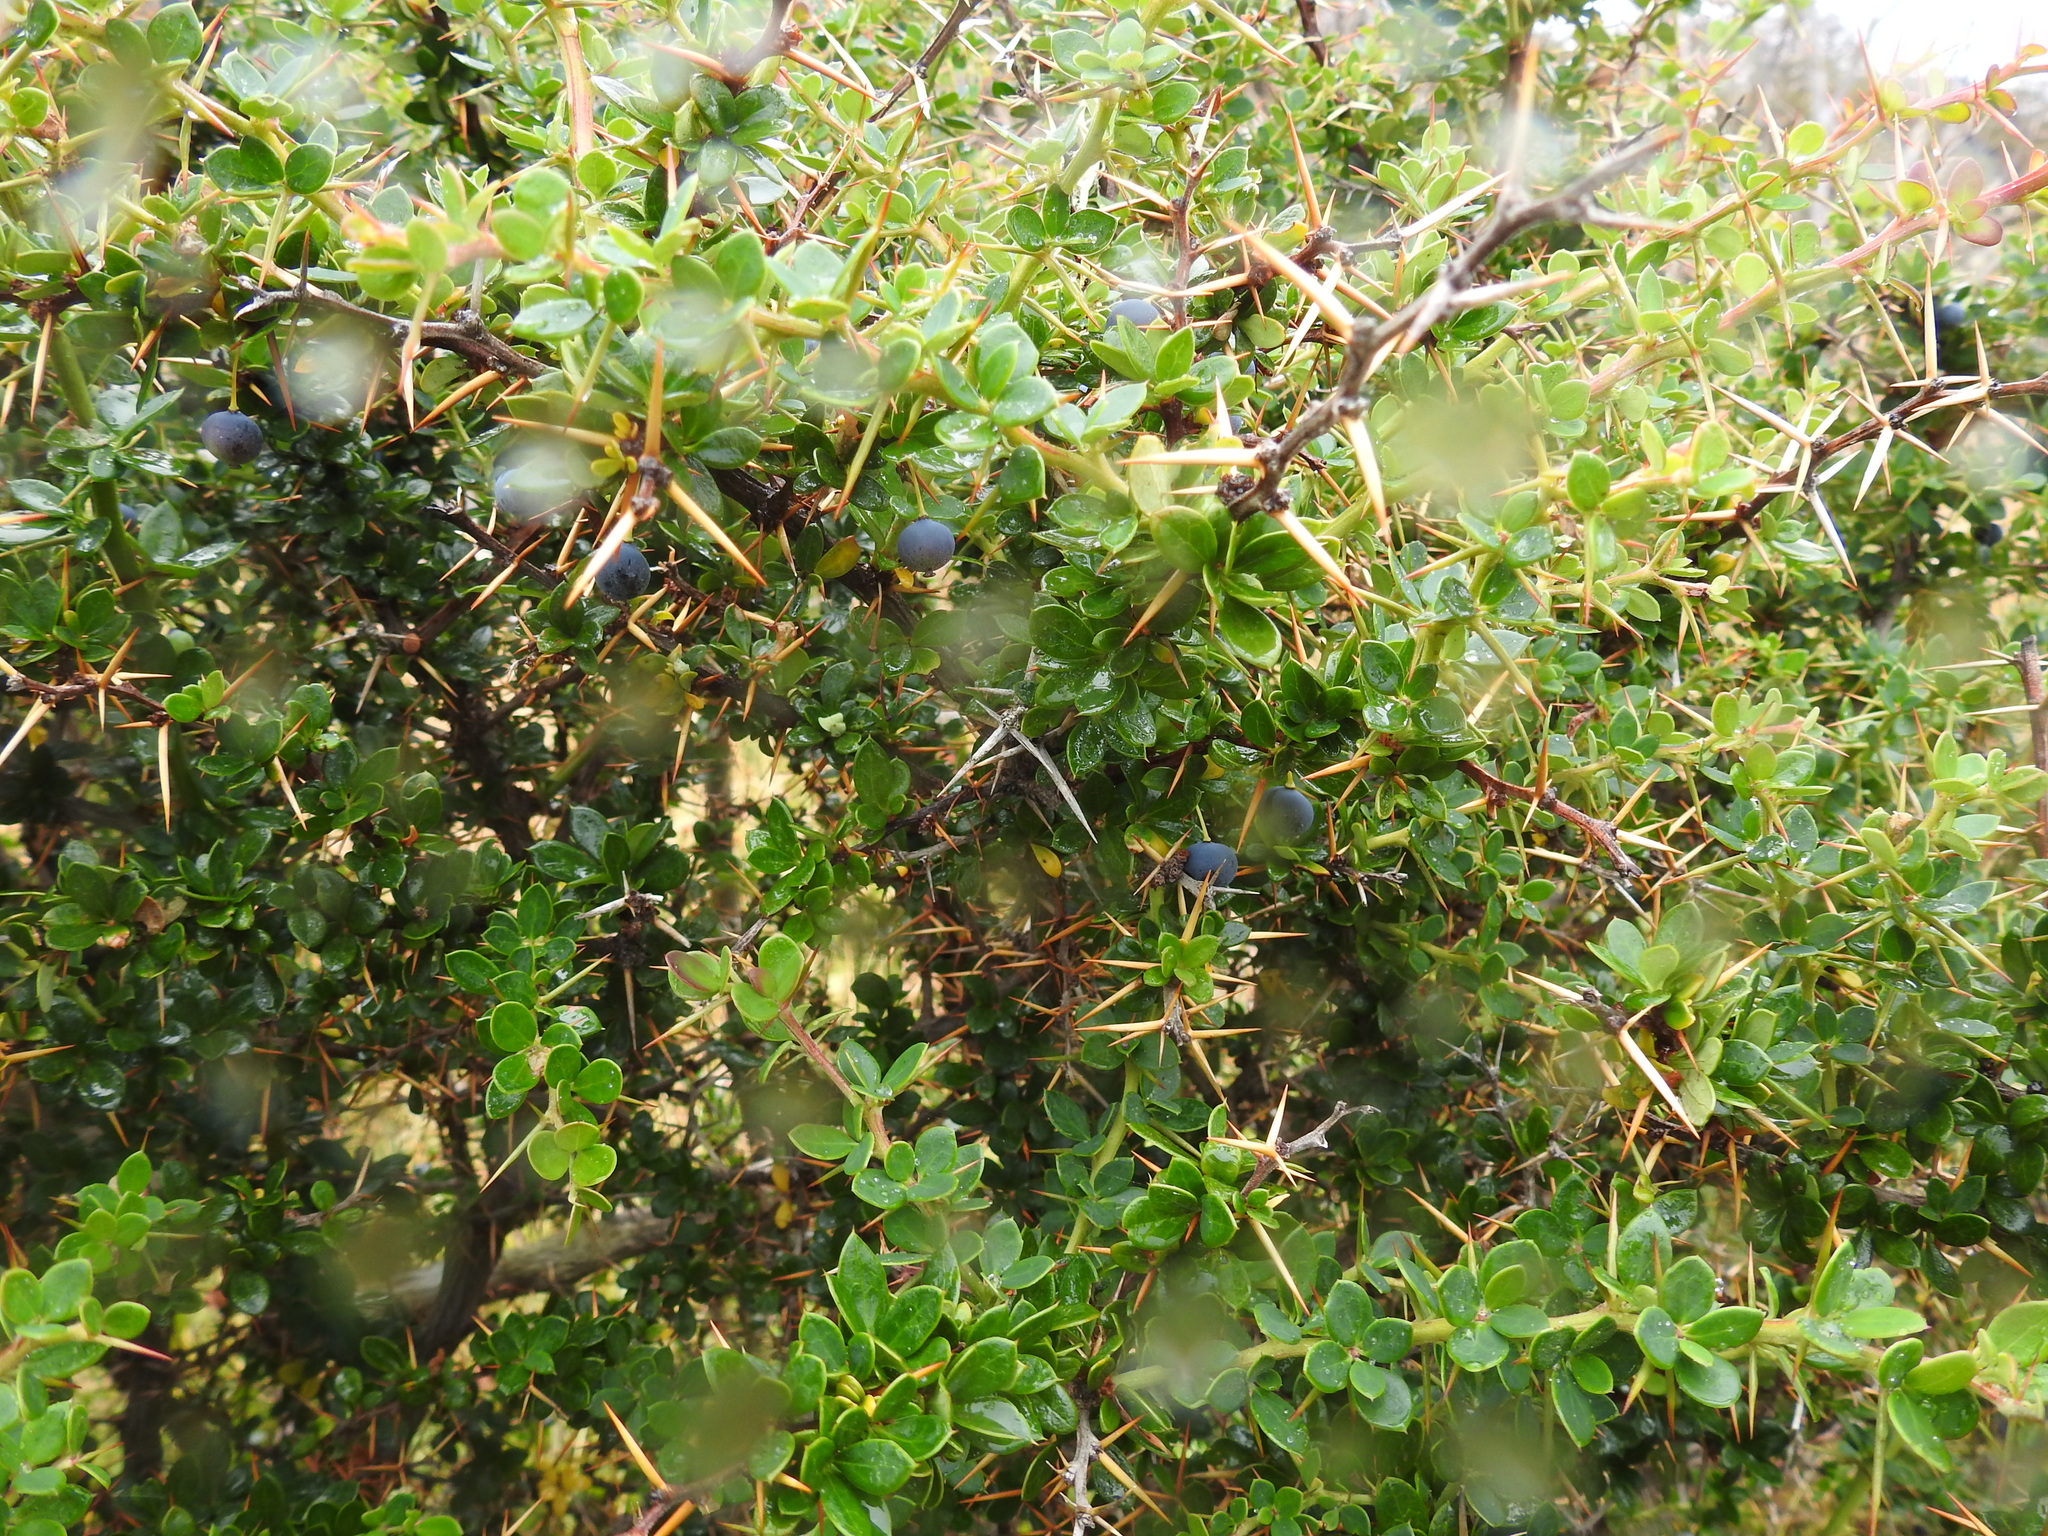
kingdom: Plantae
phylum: Tracheophyta
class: Magnoliopsida
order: Ranunculales
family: Berberidaceae
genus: Berberis
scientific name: Berberis microphylla
